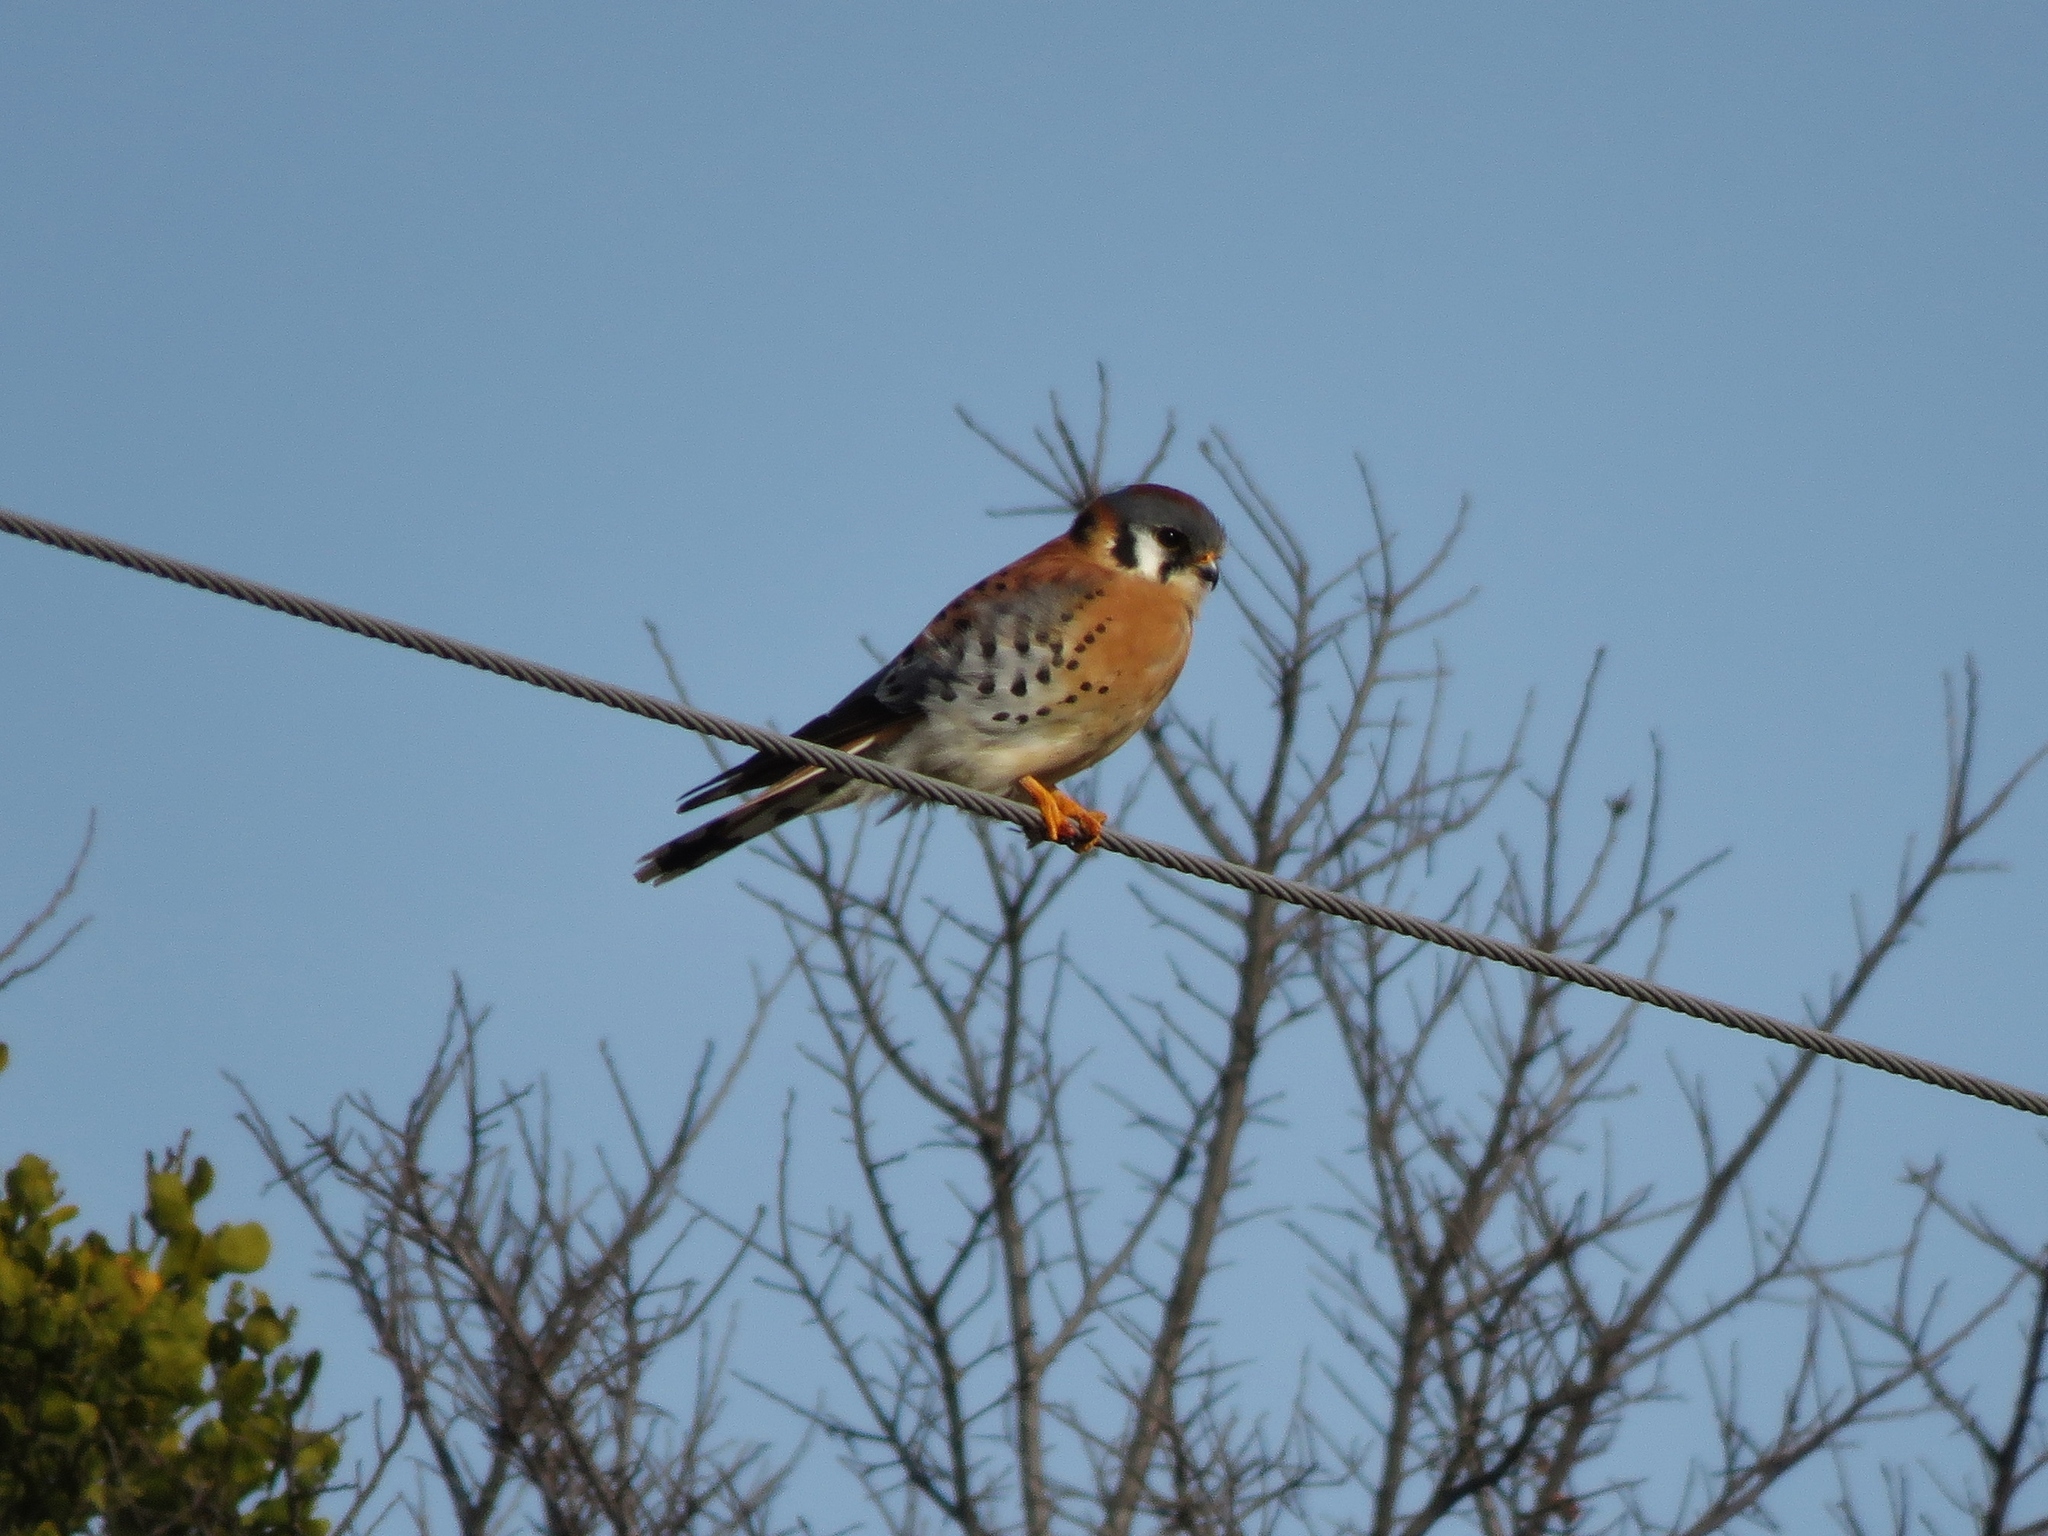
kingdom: Animalia
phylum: Chordata
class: Aves
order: Falconiformes
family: Falconidae
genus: Falco
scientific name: Falco sparverius
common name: American kestrel
